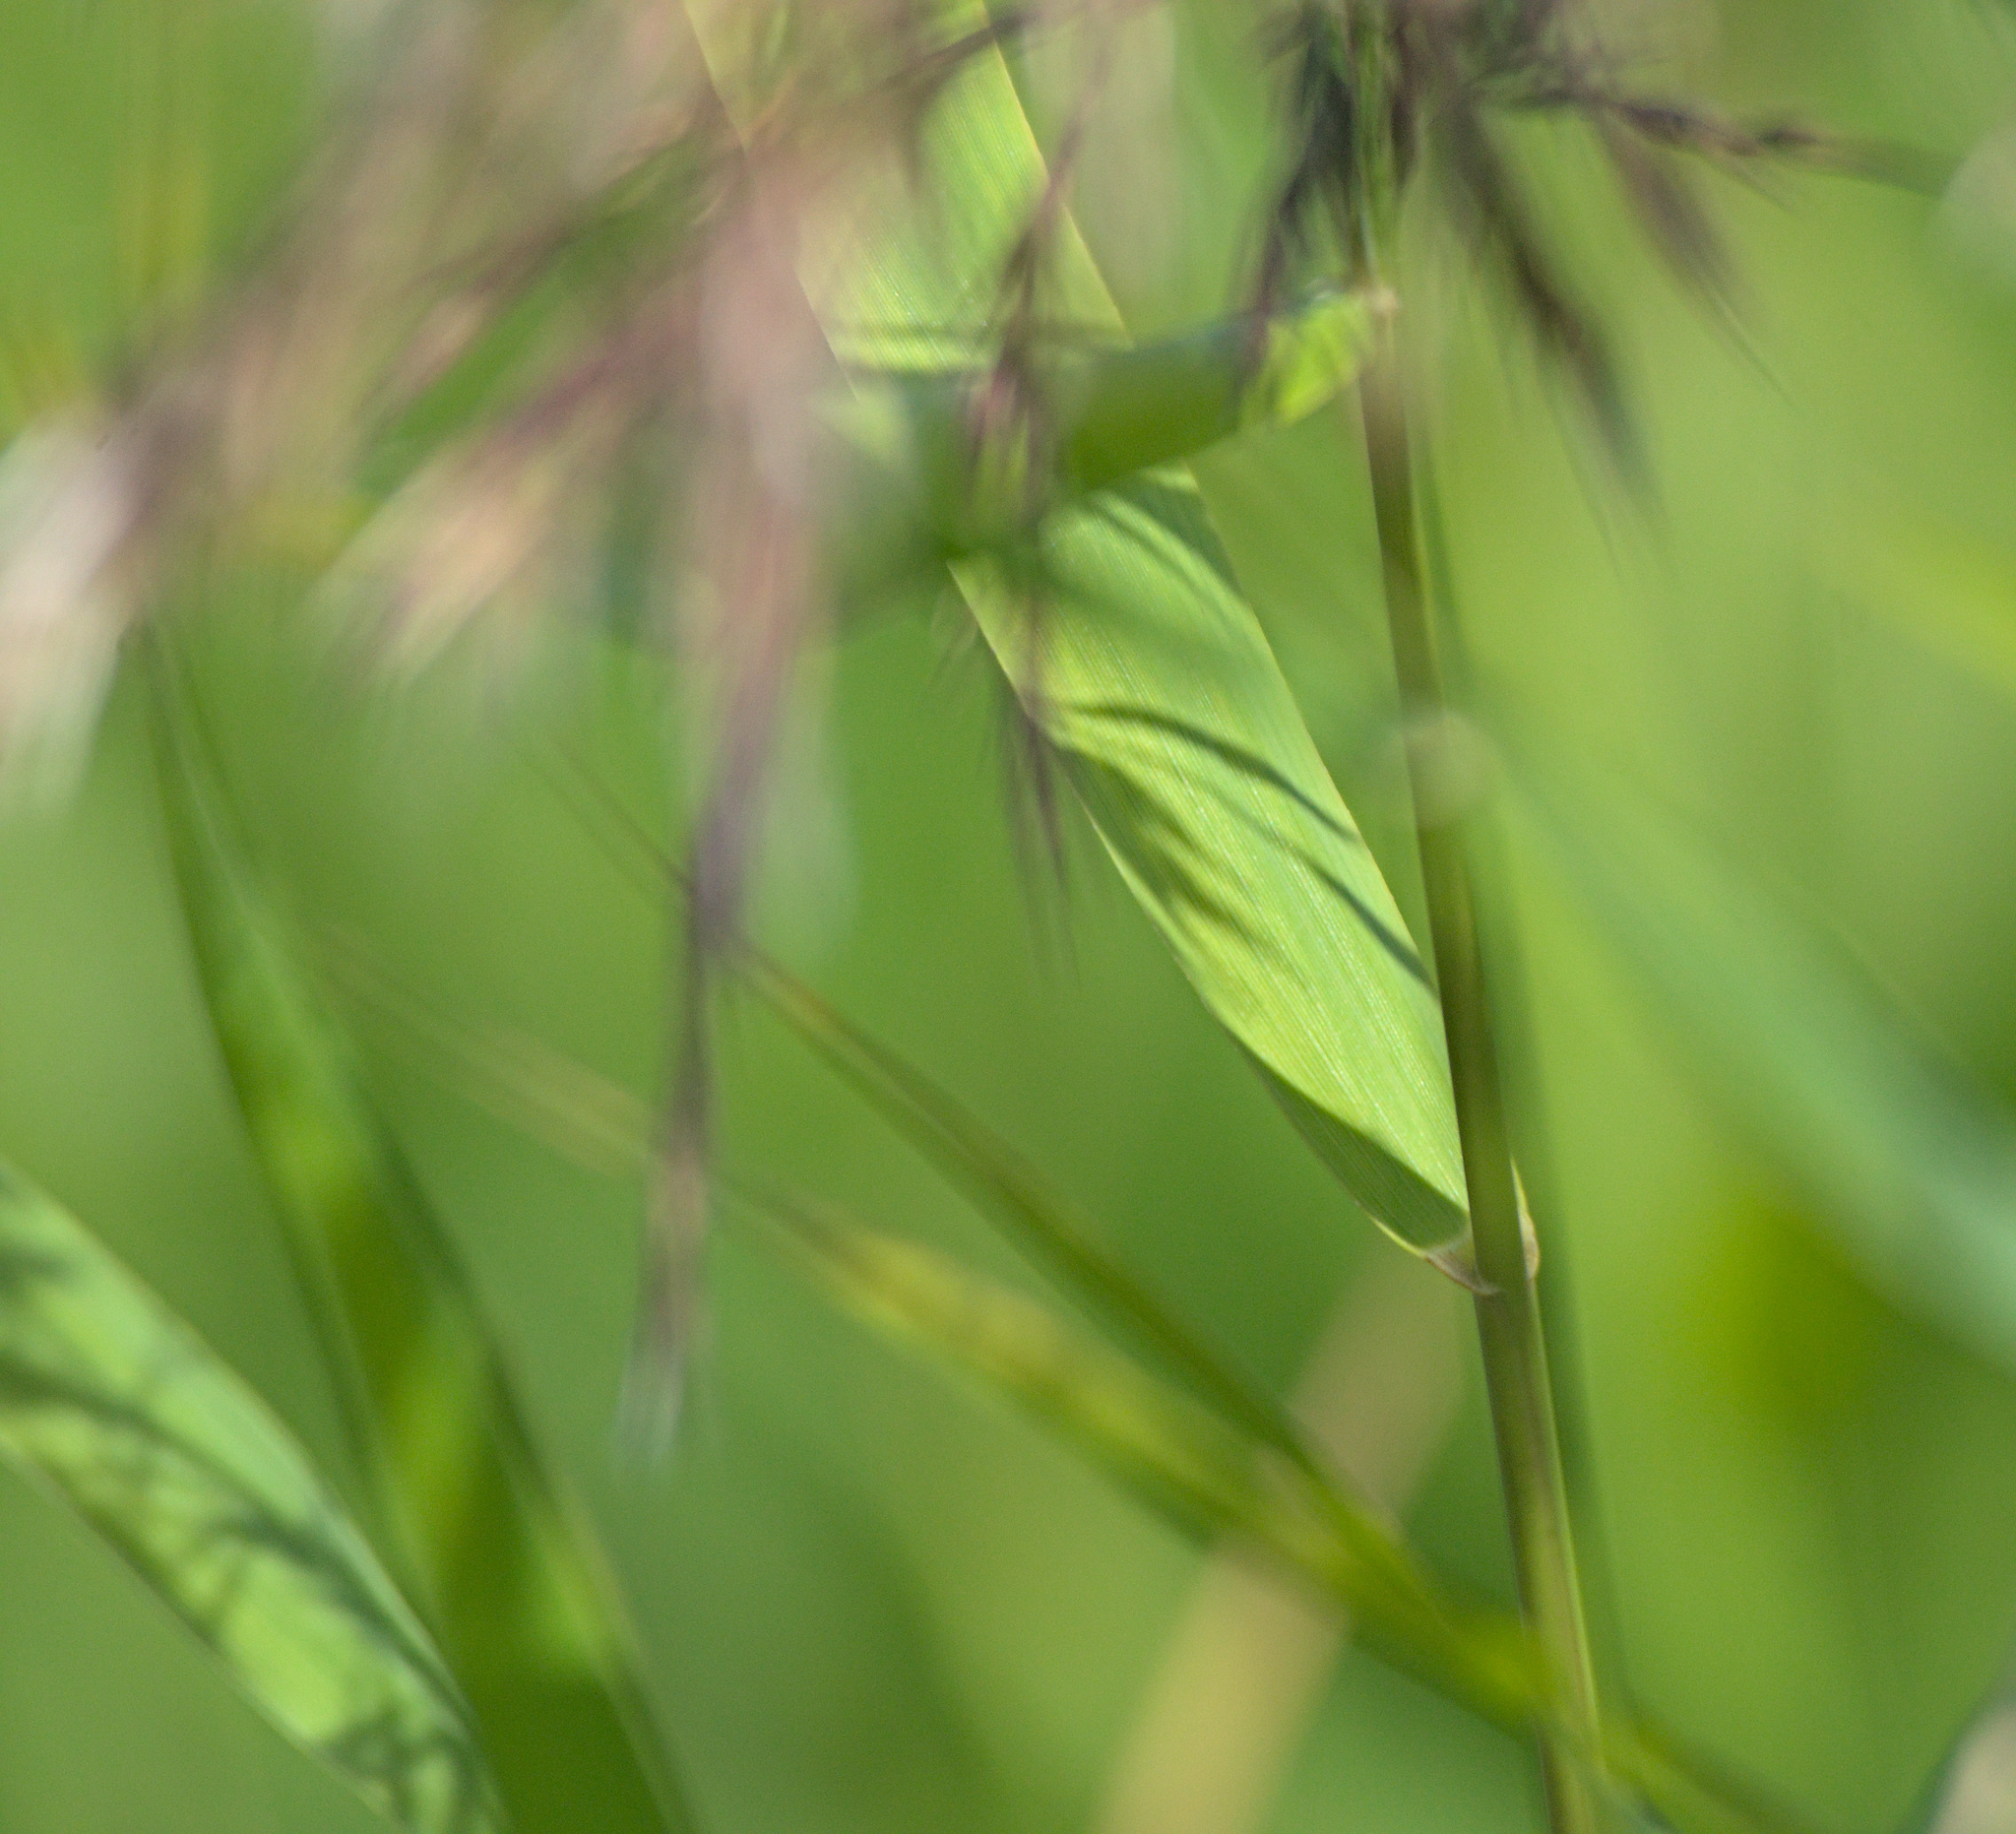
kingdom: Plantae
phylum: Tracheophyta
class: Liliopsida
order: Poales
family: Poaceae
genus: Phragmites
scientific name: Phragmites australis
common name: Common reed
